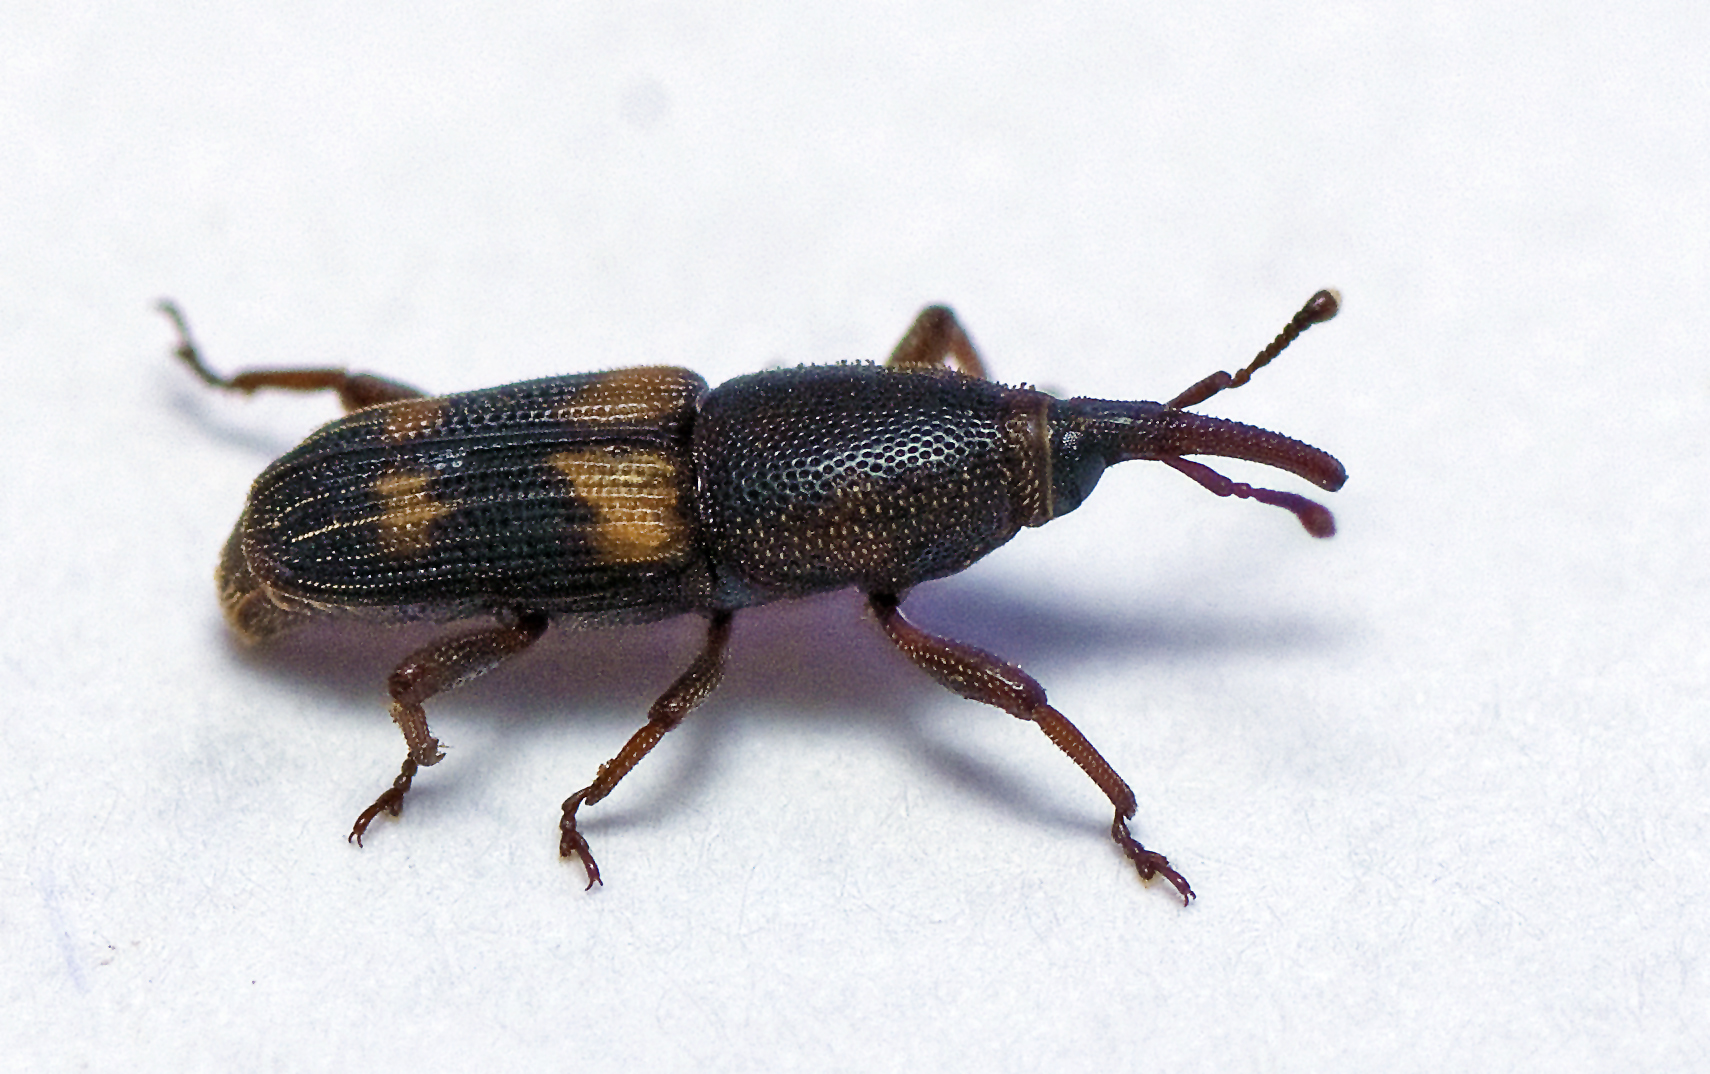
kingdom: Animalia
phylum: Arthropoda
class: Insecta
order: Coleoptera
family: Dryophthoridae
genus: Diocalandra
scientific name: Diocalandra frumenti
